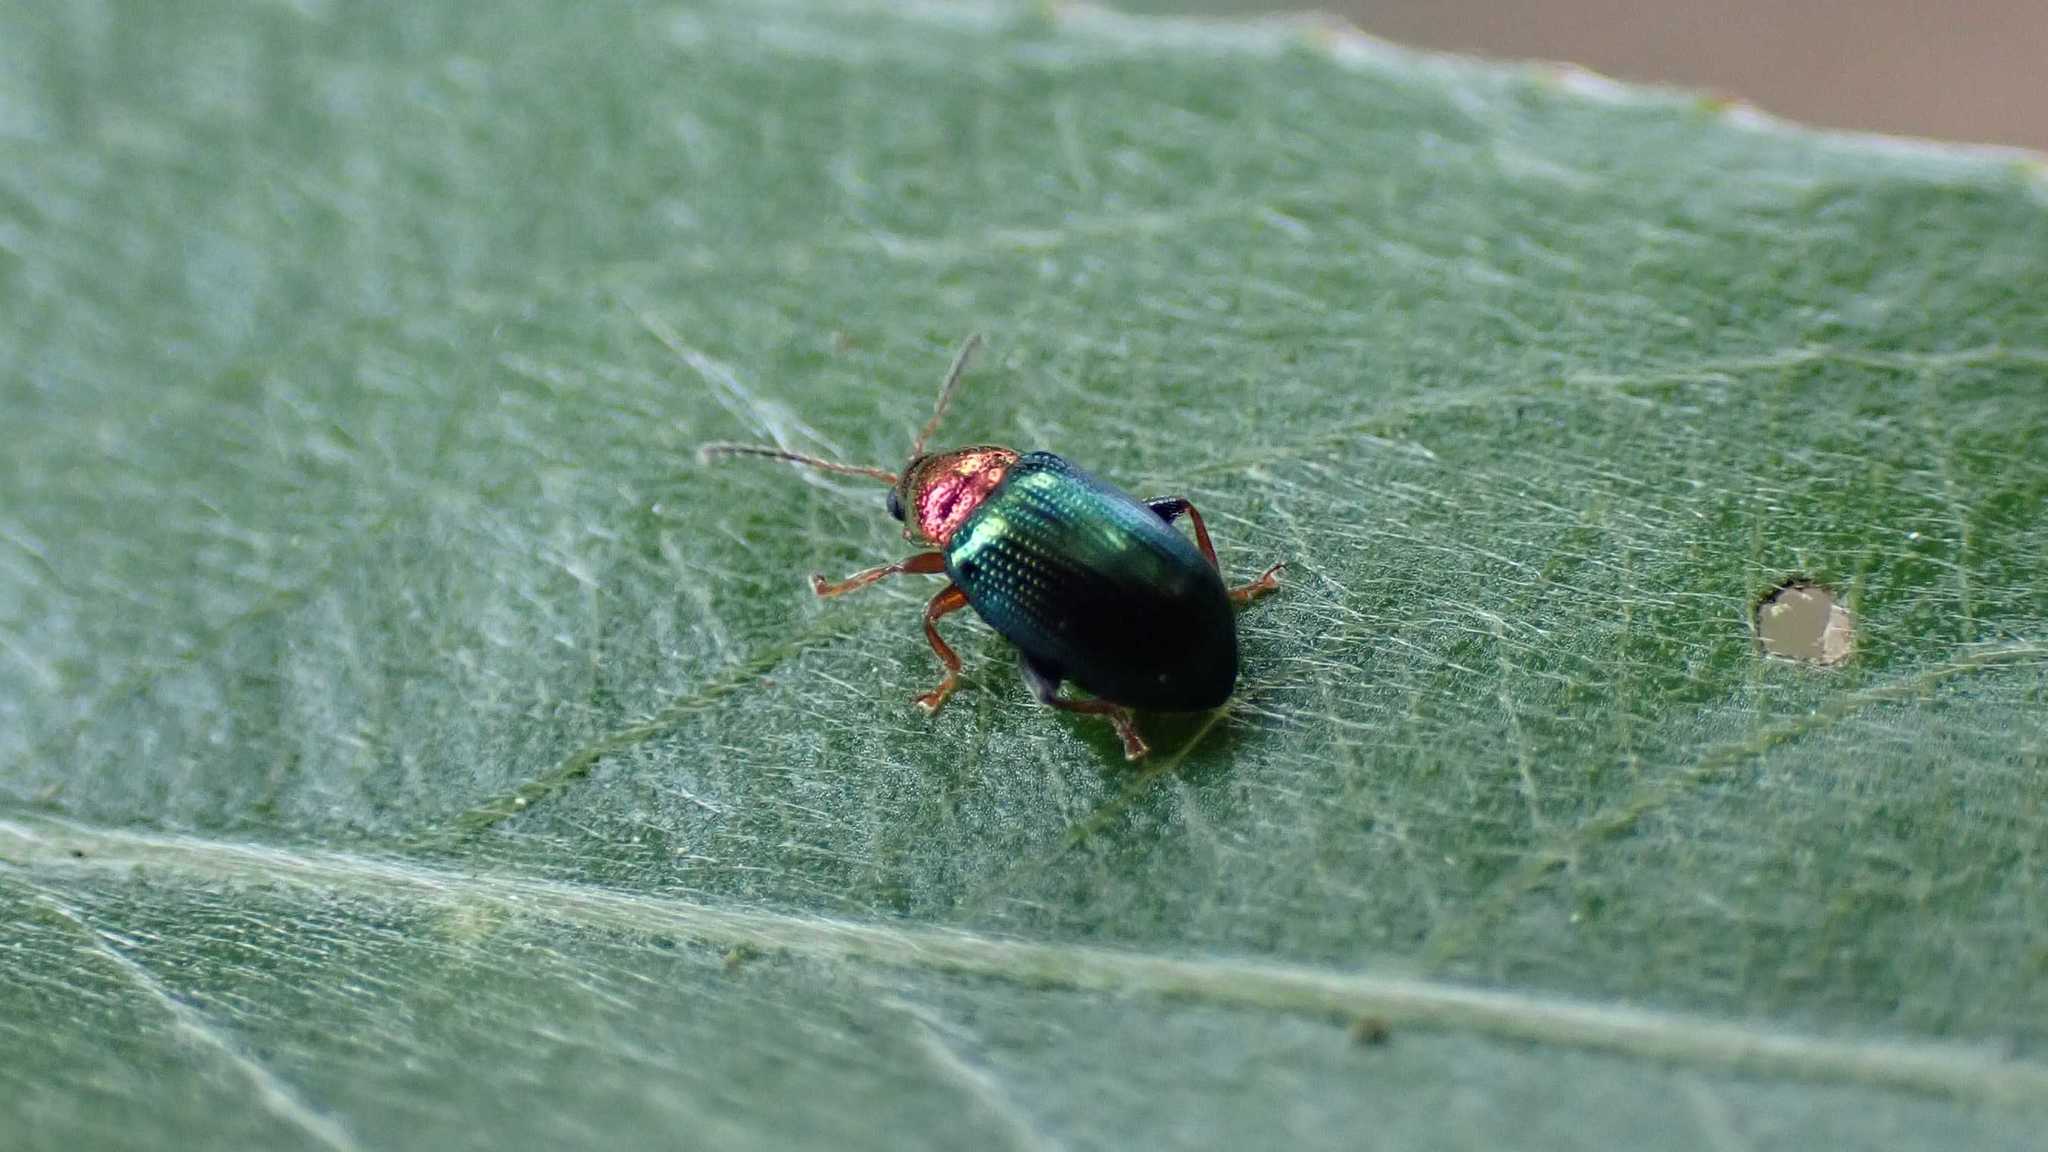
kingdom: Animalia
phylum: Arthropoda
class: Insecta
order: Coleoptera
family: Chrysomelidae
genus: Crepidodera
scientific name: Crepidodera aurata
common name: Willow flea beetle
